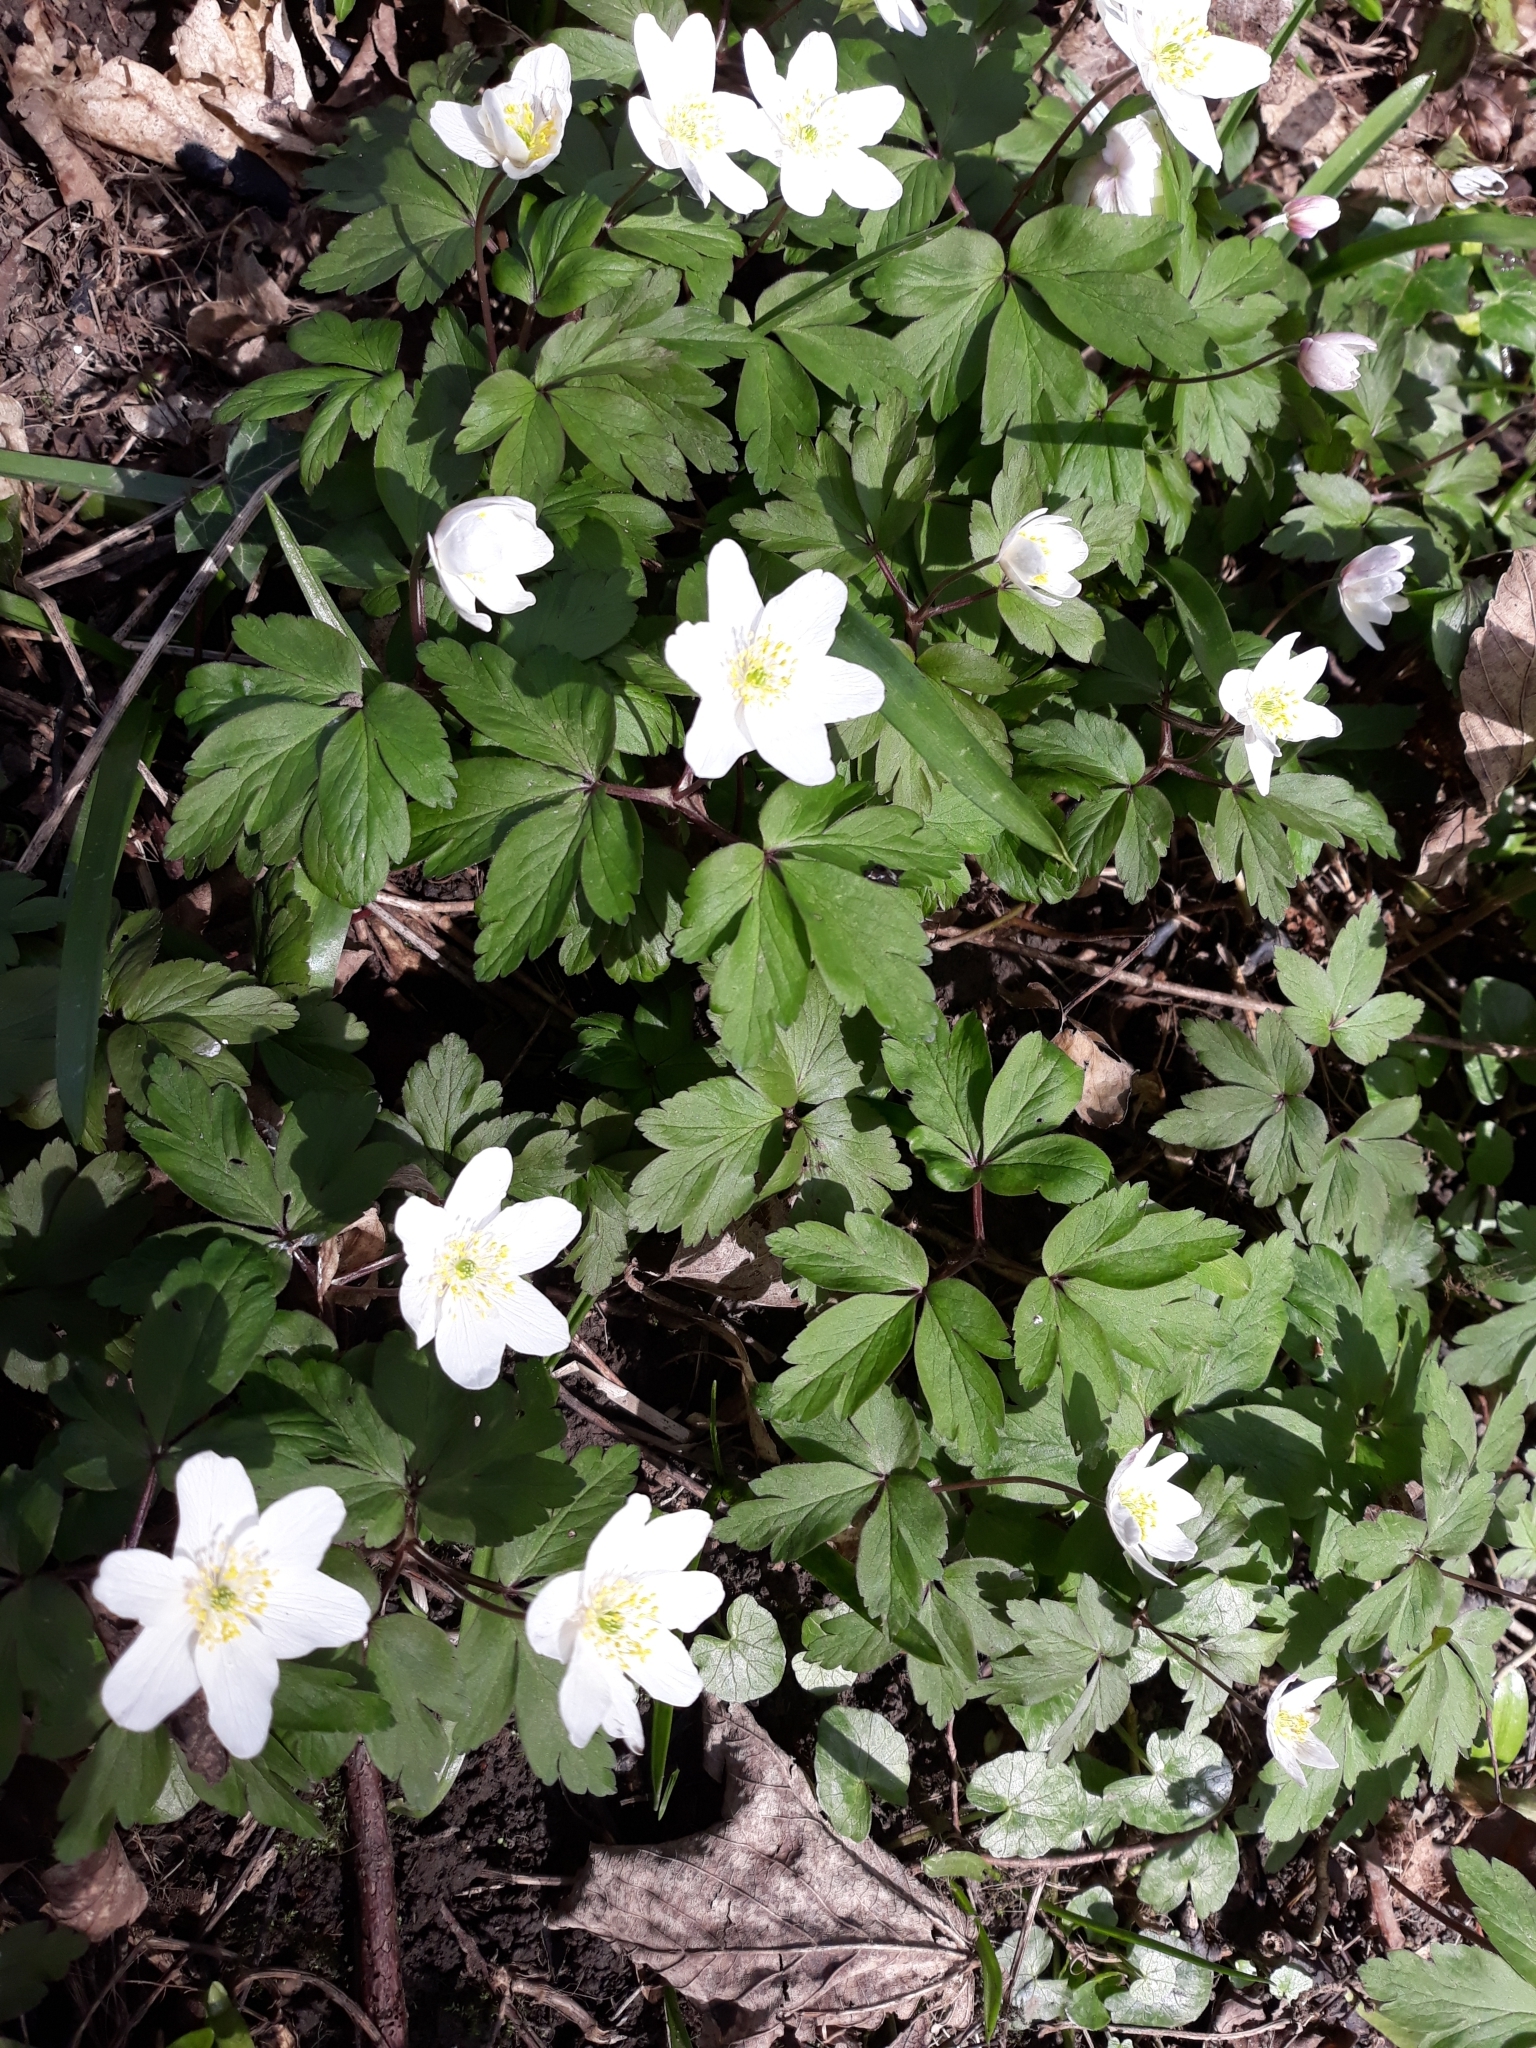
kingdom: Plantae
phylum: Tracheophyta
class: Magnoliopsida
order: Ranunculales
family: Ranunculaceae
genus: Anemone
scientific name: Anemone nemorosa
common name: Wood anemone
